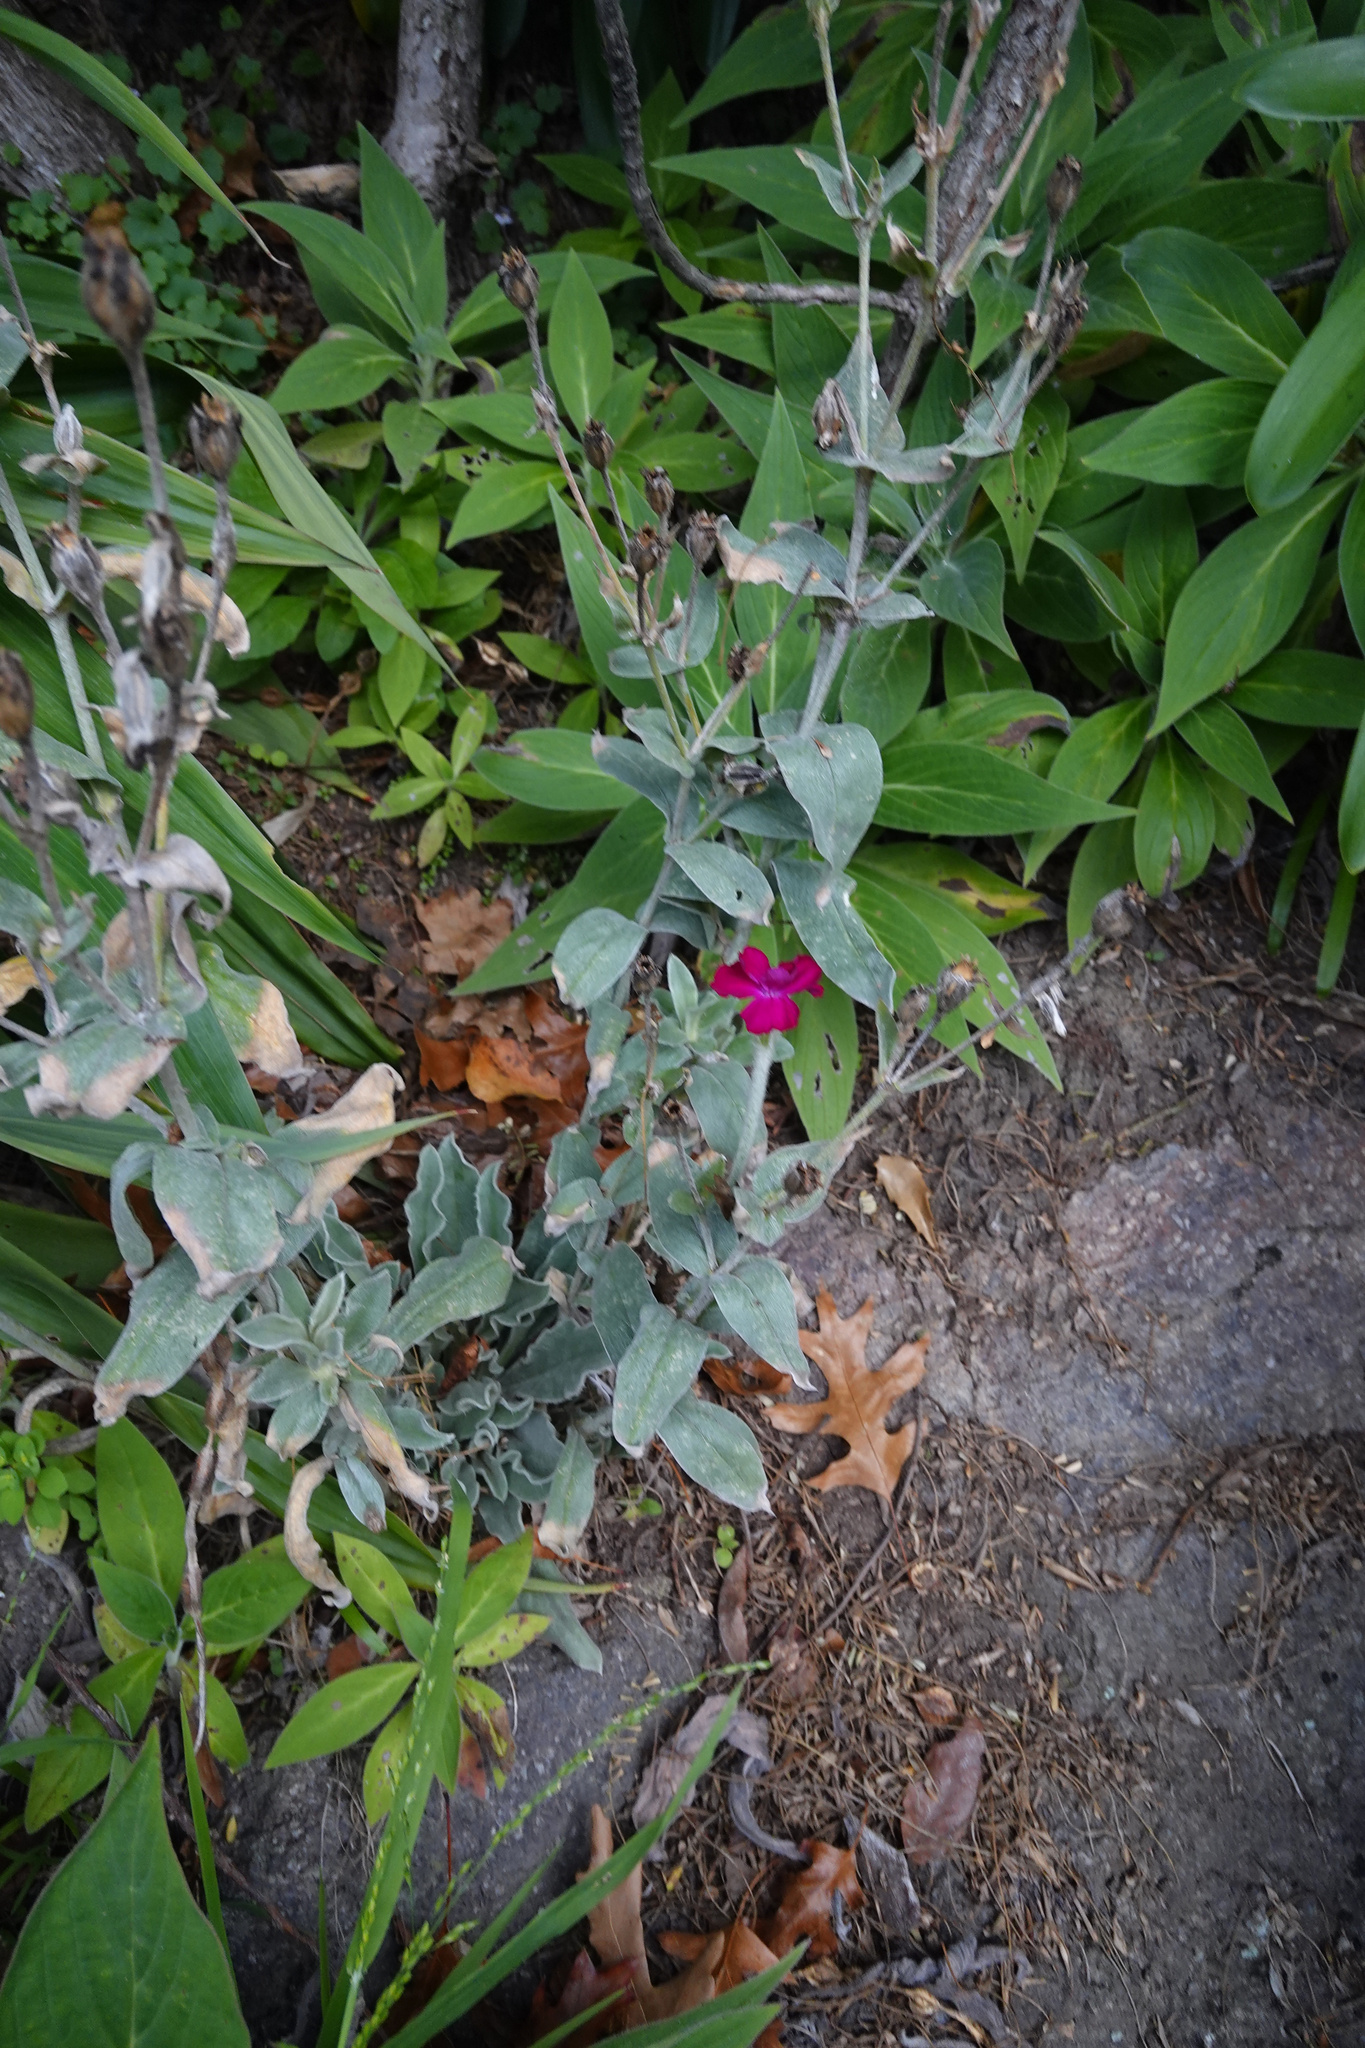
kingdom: Plantae
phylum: Tracheophyta
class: Magnoliopsida
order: Caryophyllales
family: Caryophyllaceae
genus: Silene
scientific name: Silene coronaria
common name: Rose campion
